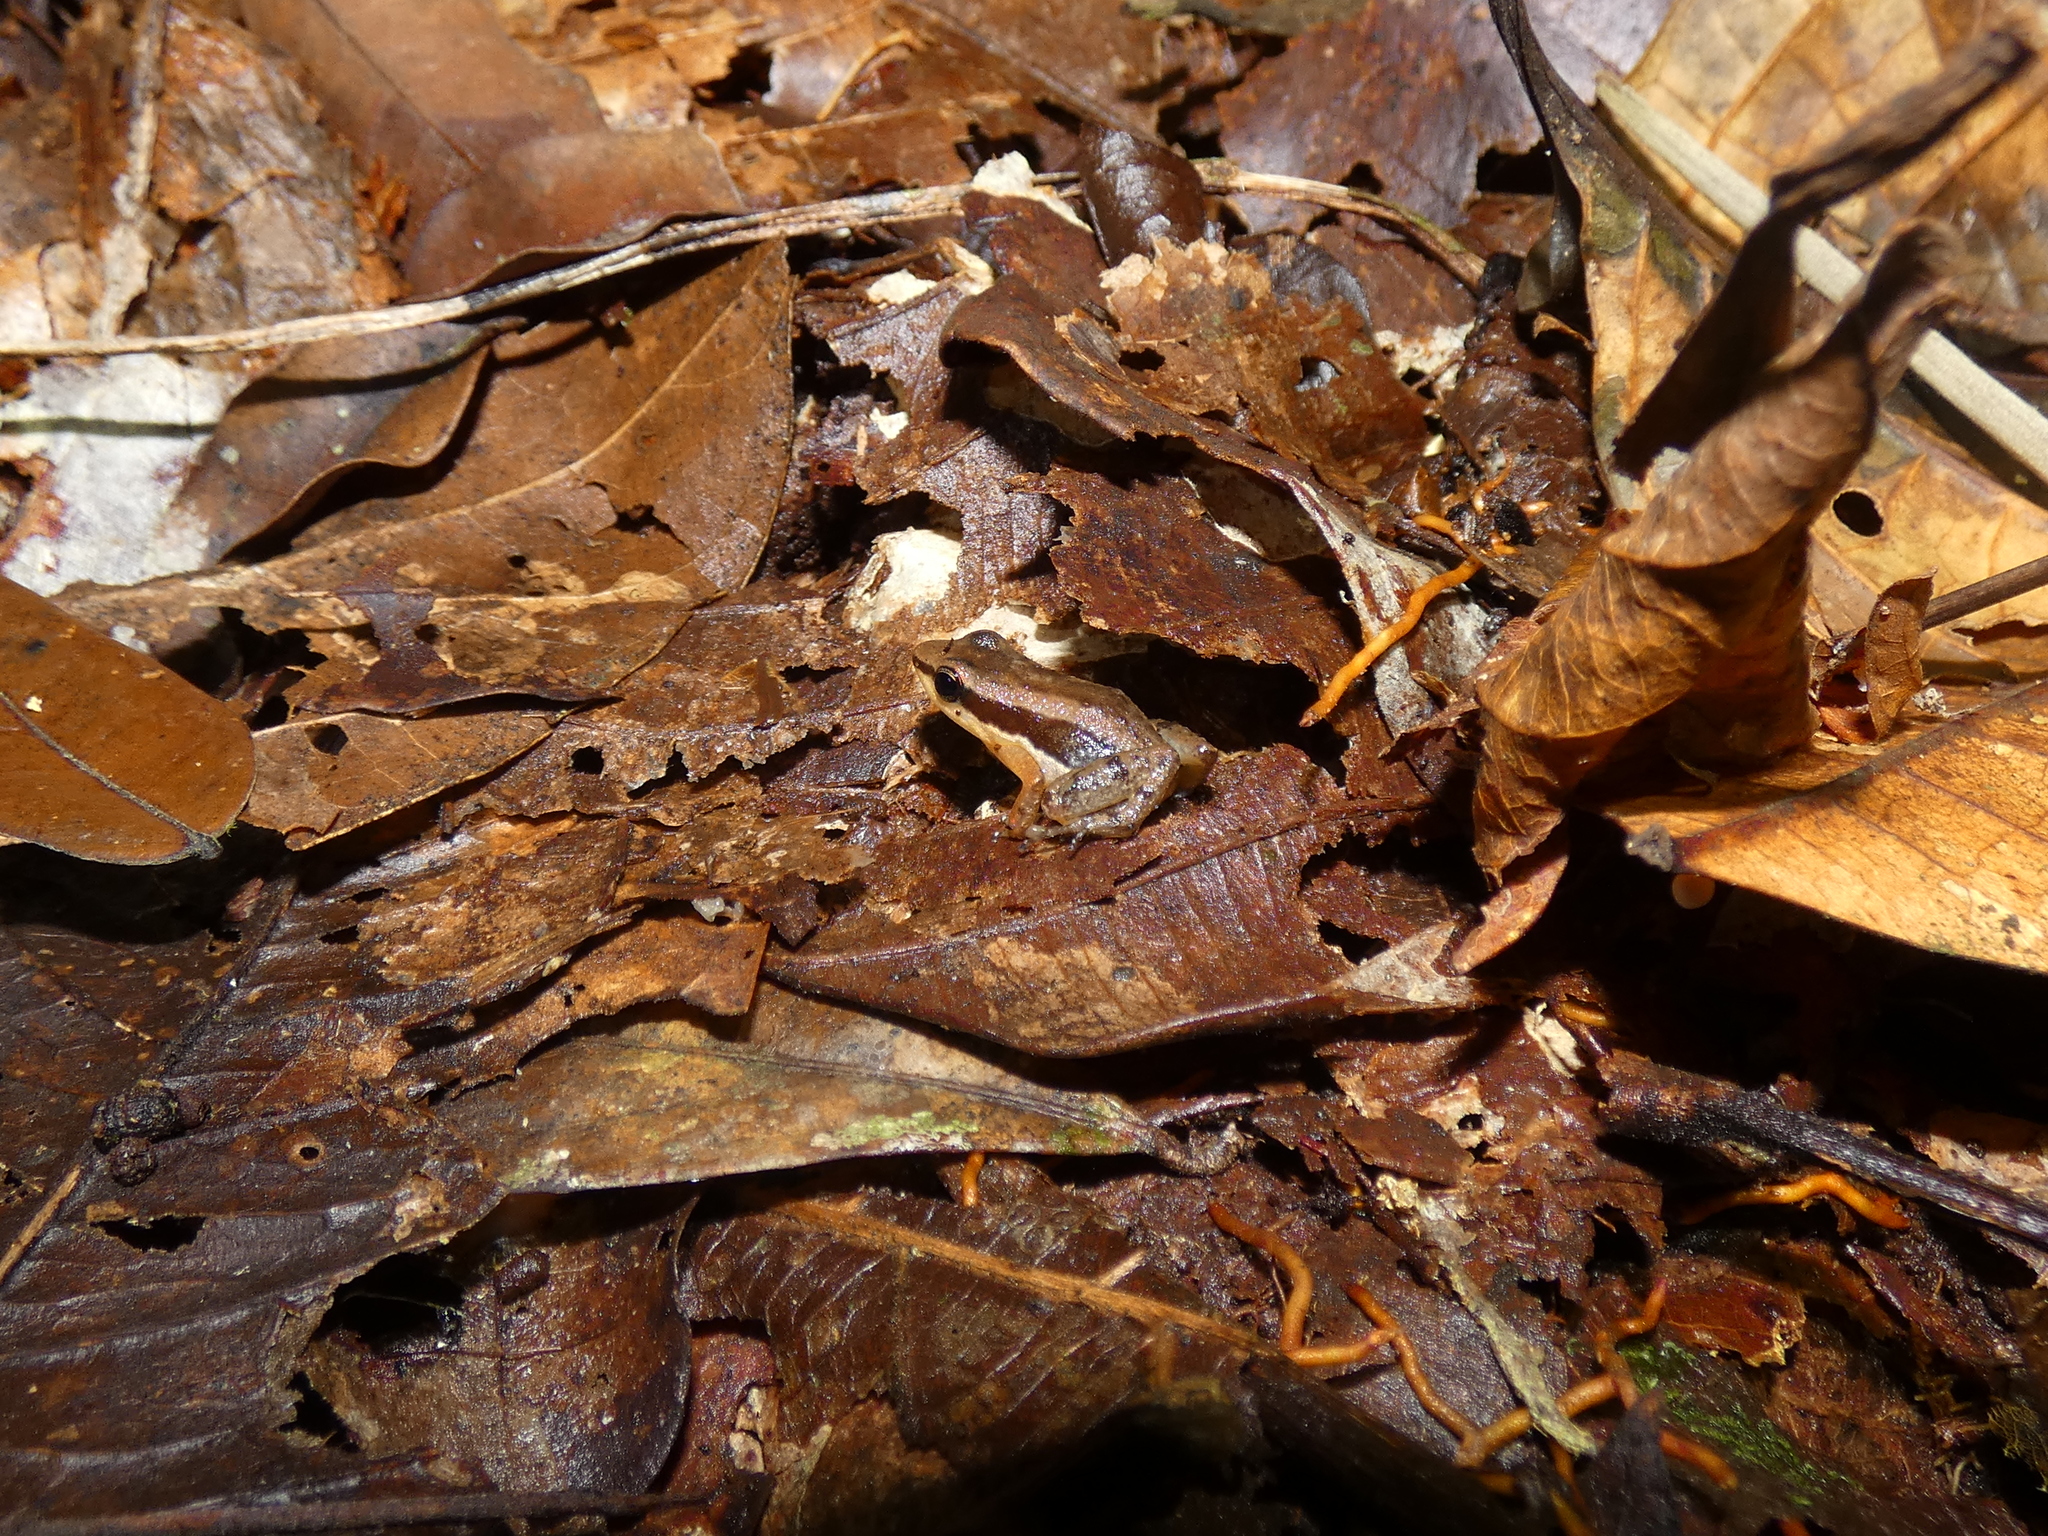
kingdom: Animalia
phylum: Chordata
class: Amphibia
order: Anura
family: Aromobatidae
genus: Allobates
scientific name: Allobates insperatus
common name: Santa cecilia rocket frog
